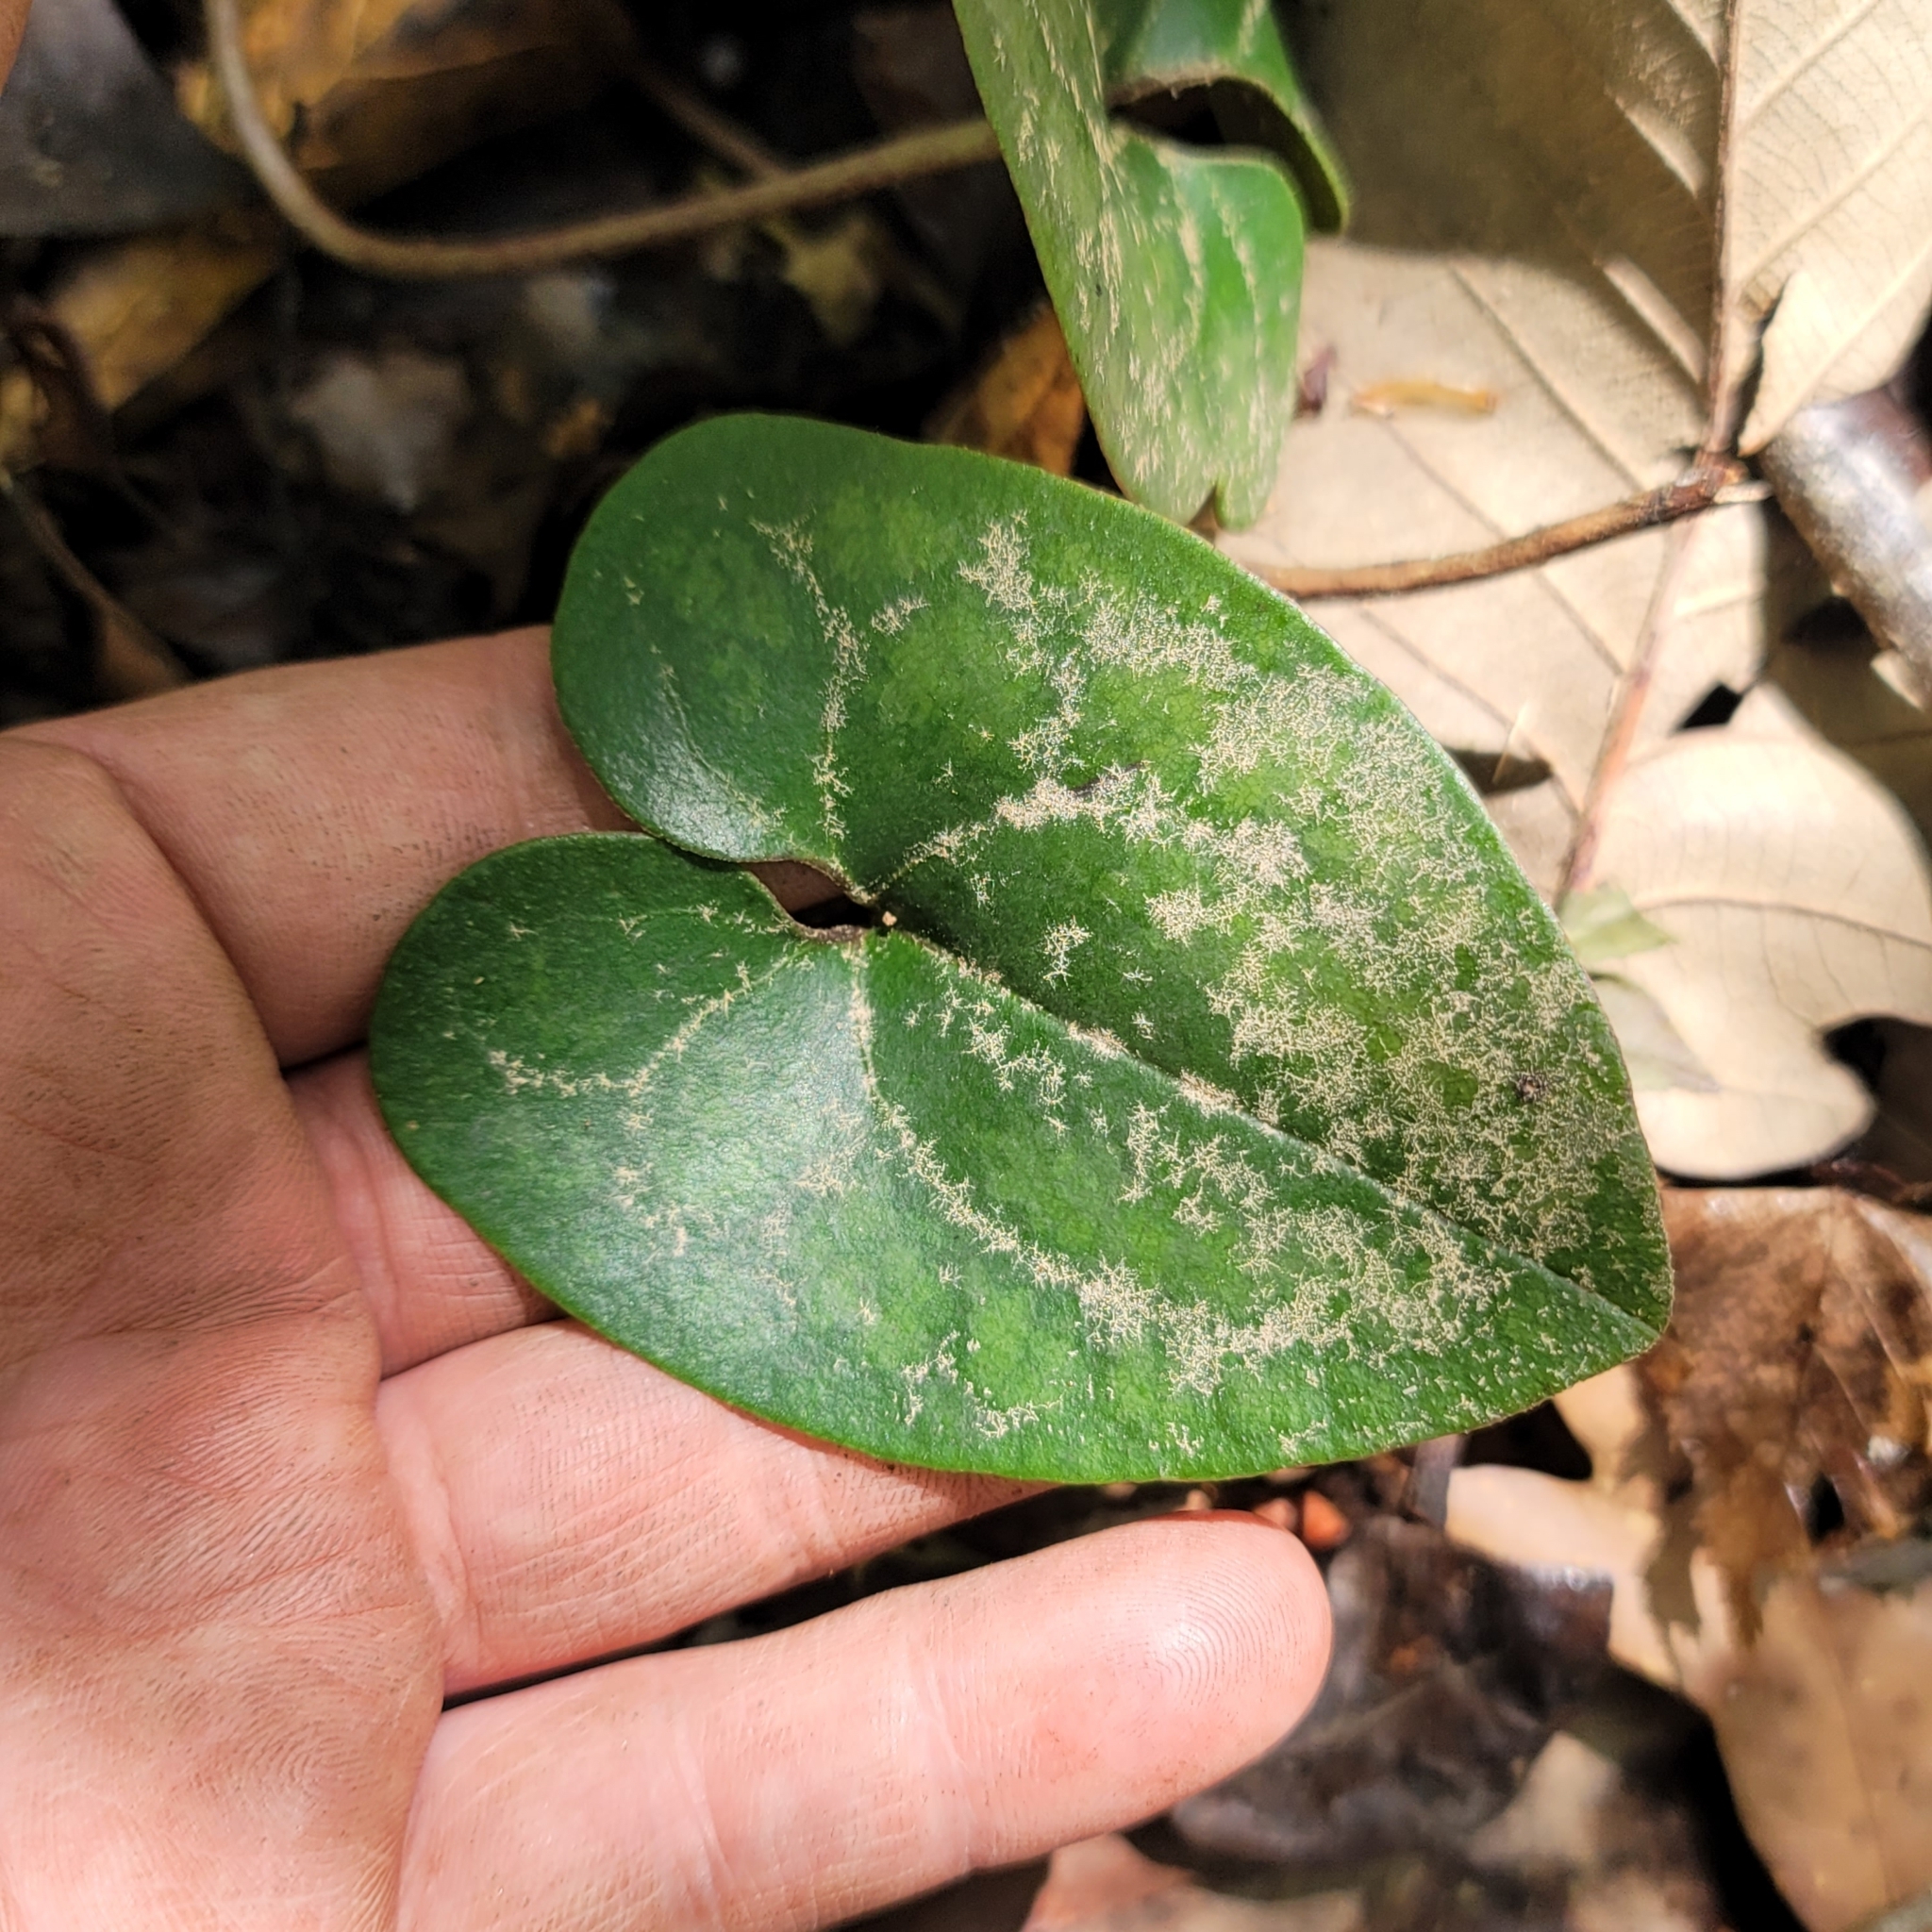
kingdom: Plantae
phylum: Tracheophyta
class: Magnoliopsida
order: Piperales
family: Aristolochiaceae
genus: Hexastylis
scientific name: Hexastylis arifolia
